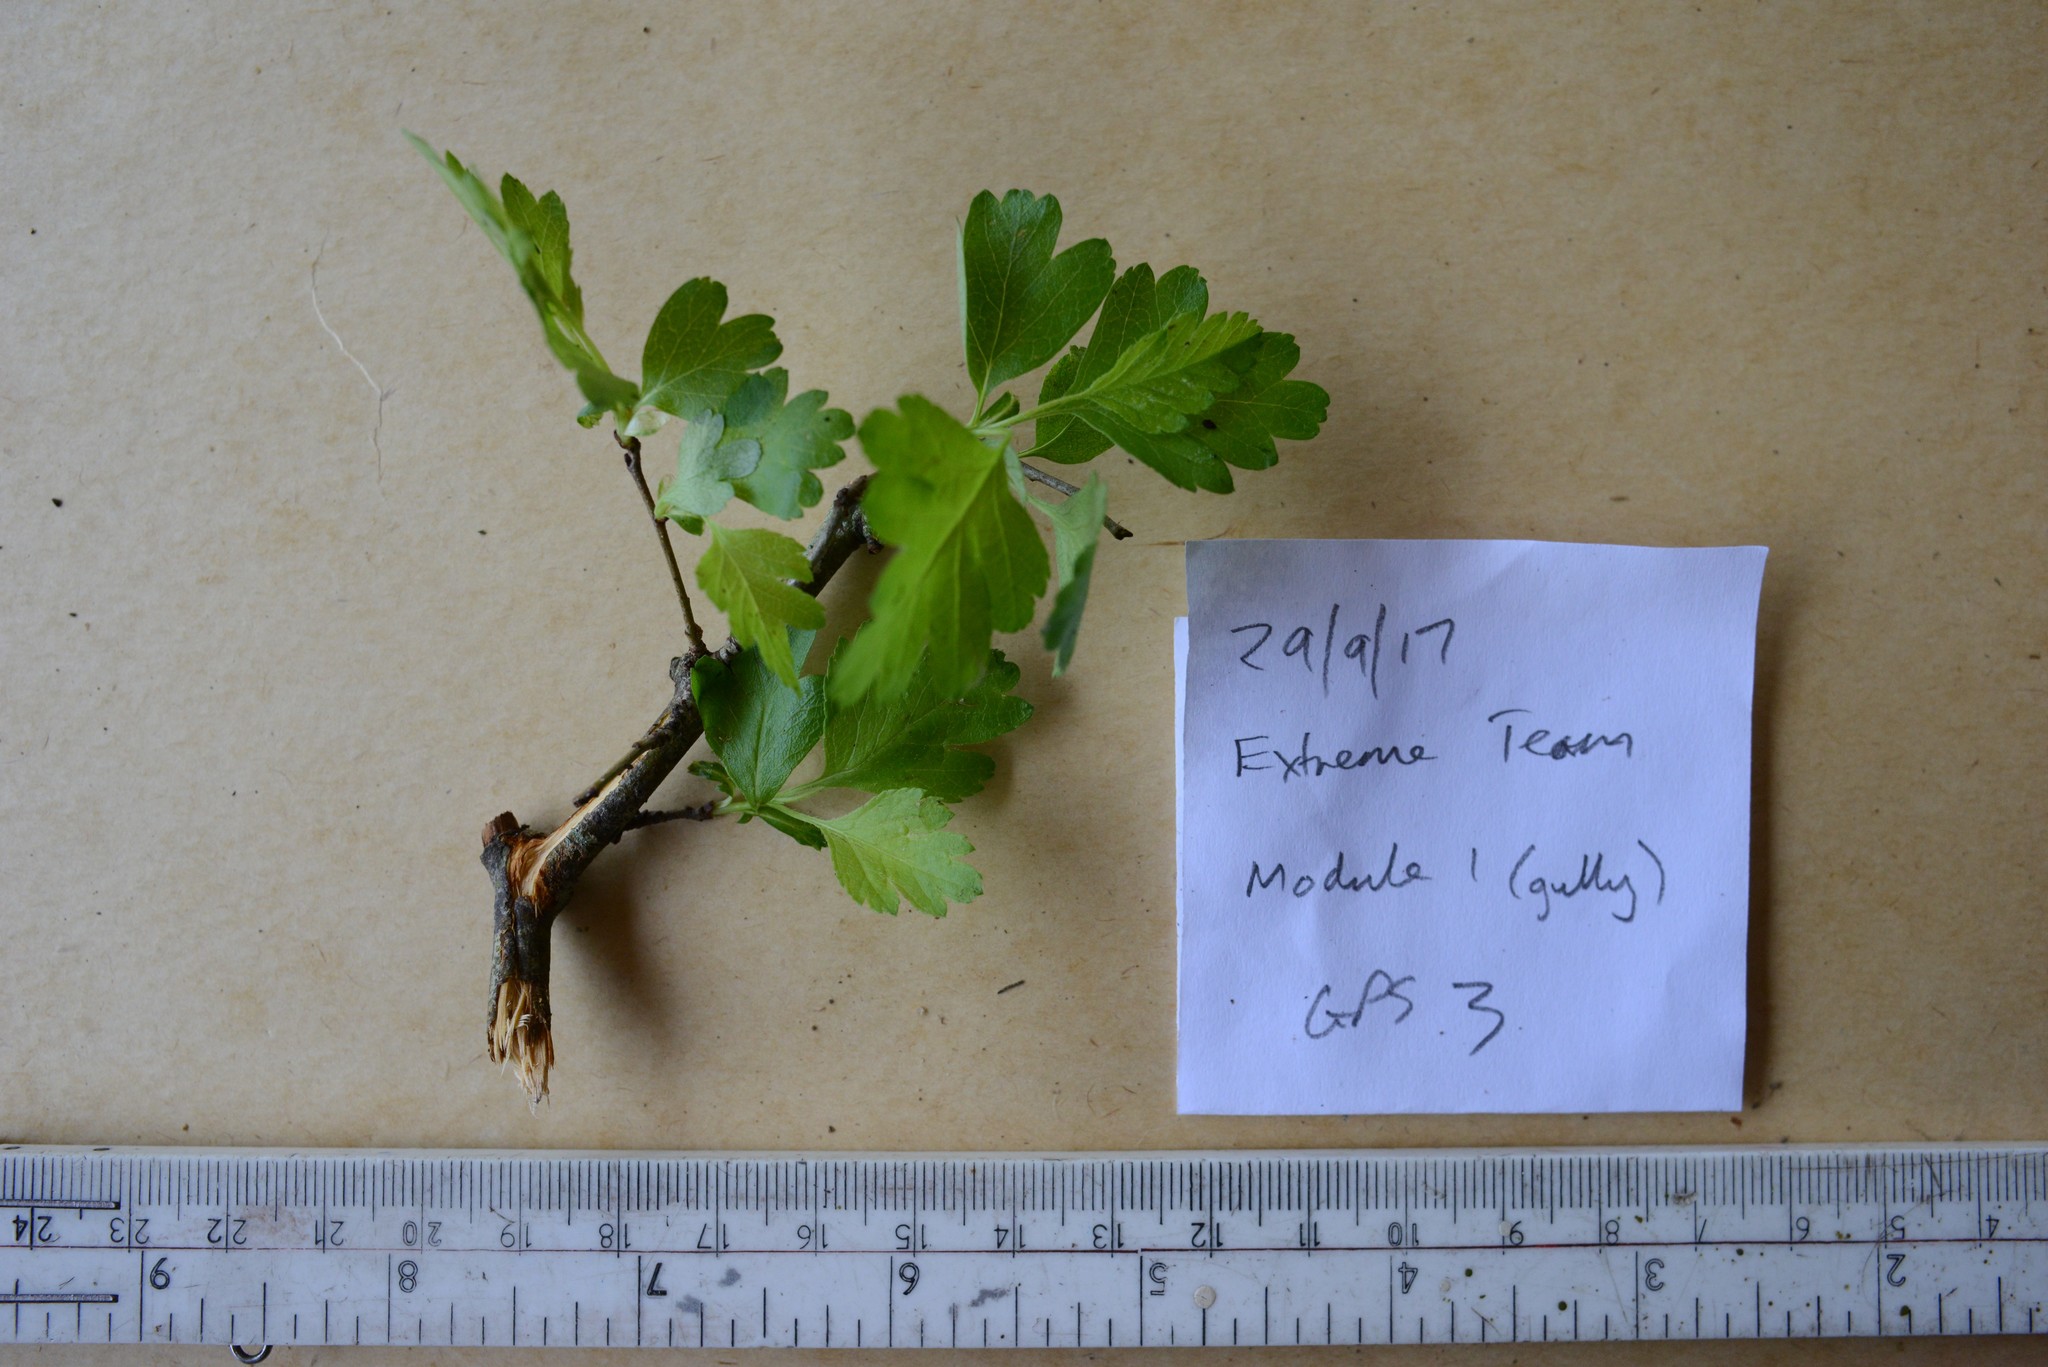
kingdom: Plantae
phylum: Tracheophyta
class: Magnoliopsida
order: Rosales
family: Rosaceae
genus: Crataegus
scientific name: Crataegus monogyna
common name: Hawthorn
